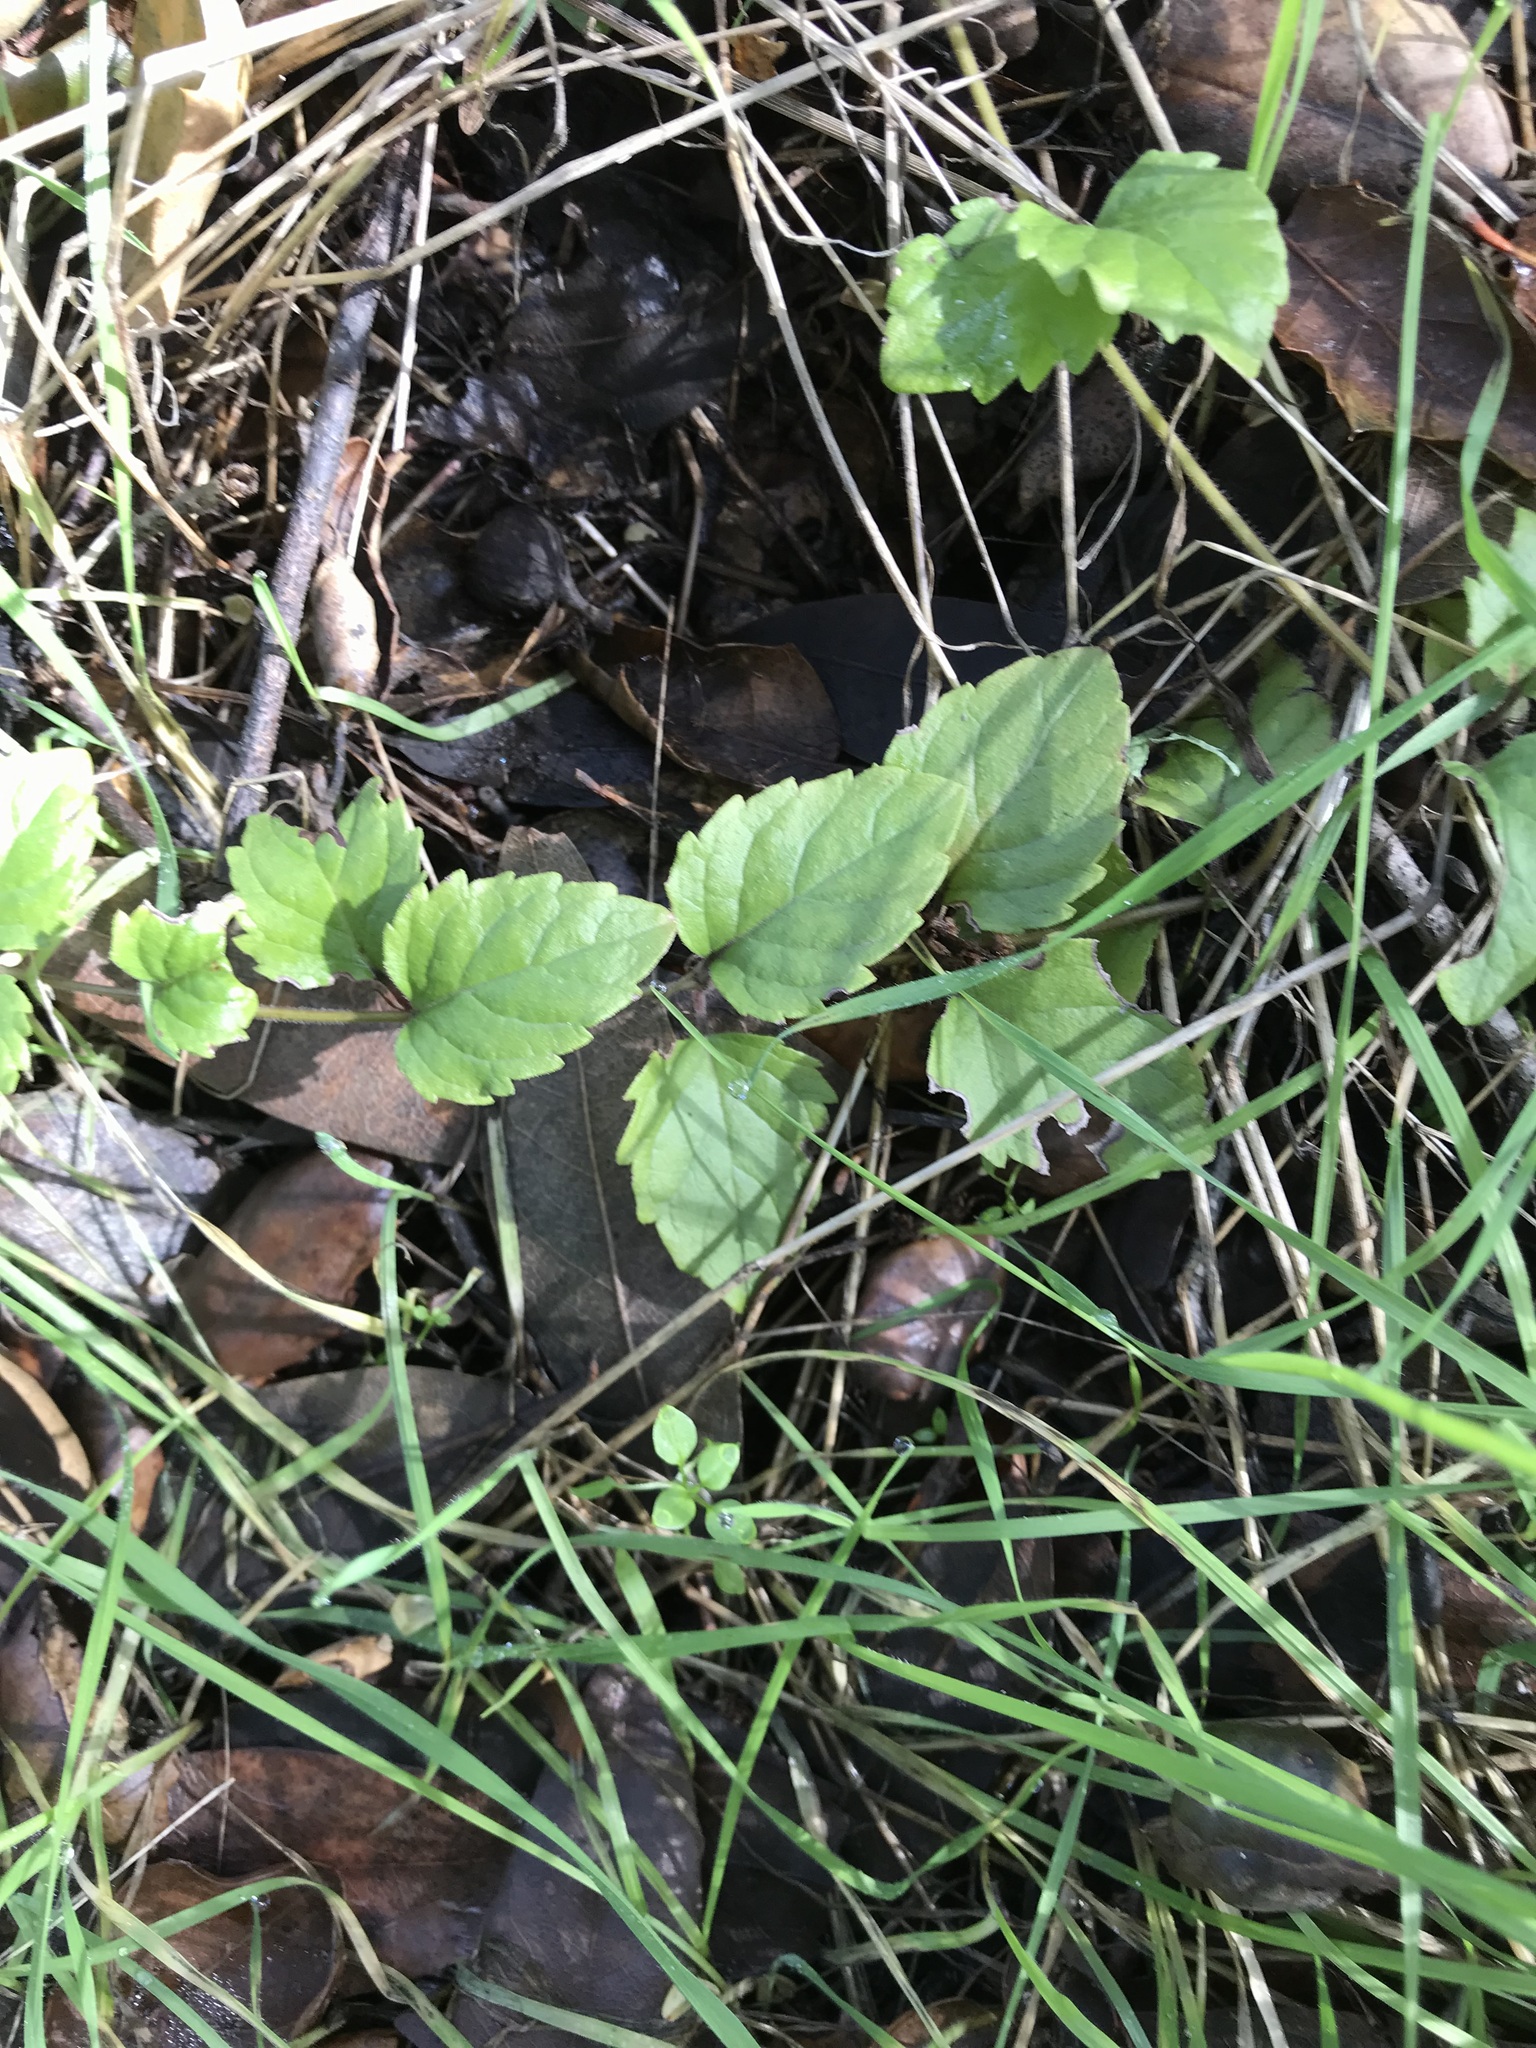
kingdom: Plantae
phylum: Tracheophyta
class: Magnoliopsida
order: Lamiales
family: Lamiaceae
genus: Micromeria
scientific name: Micromeria douglasii
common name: Yerba buena
